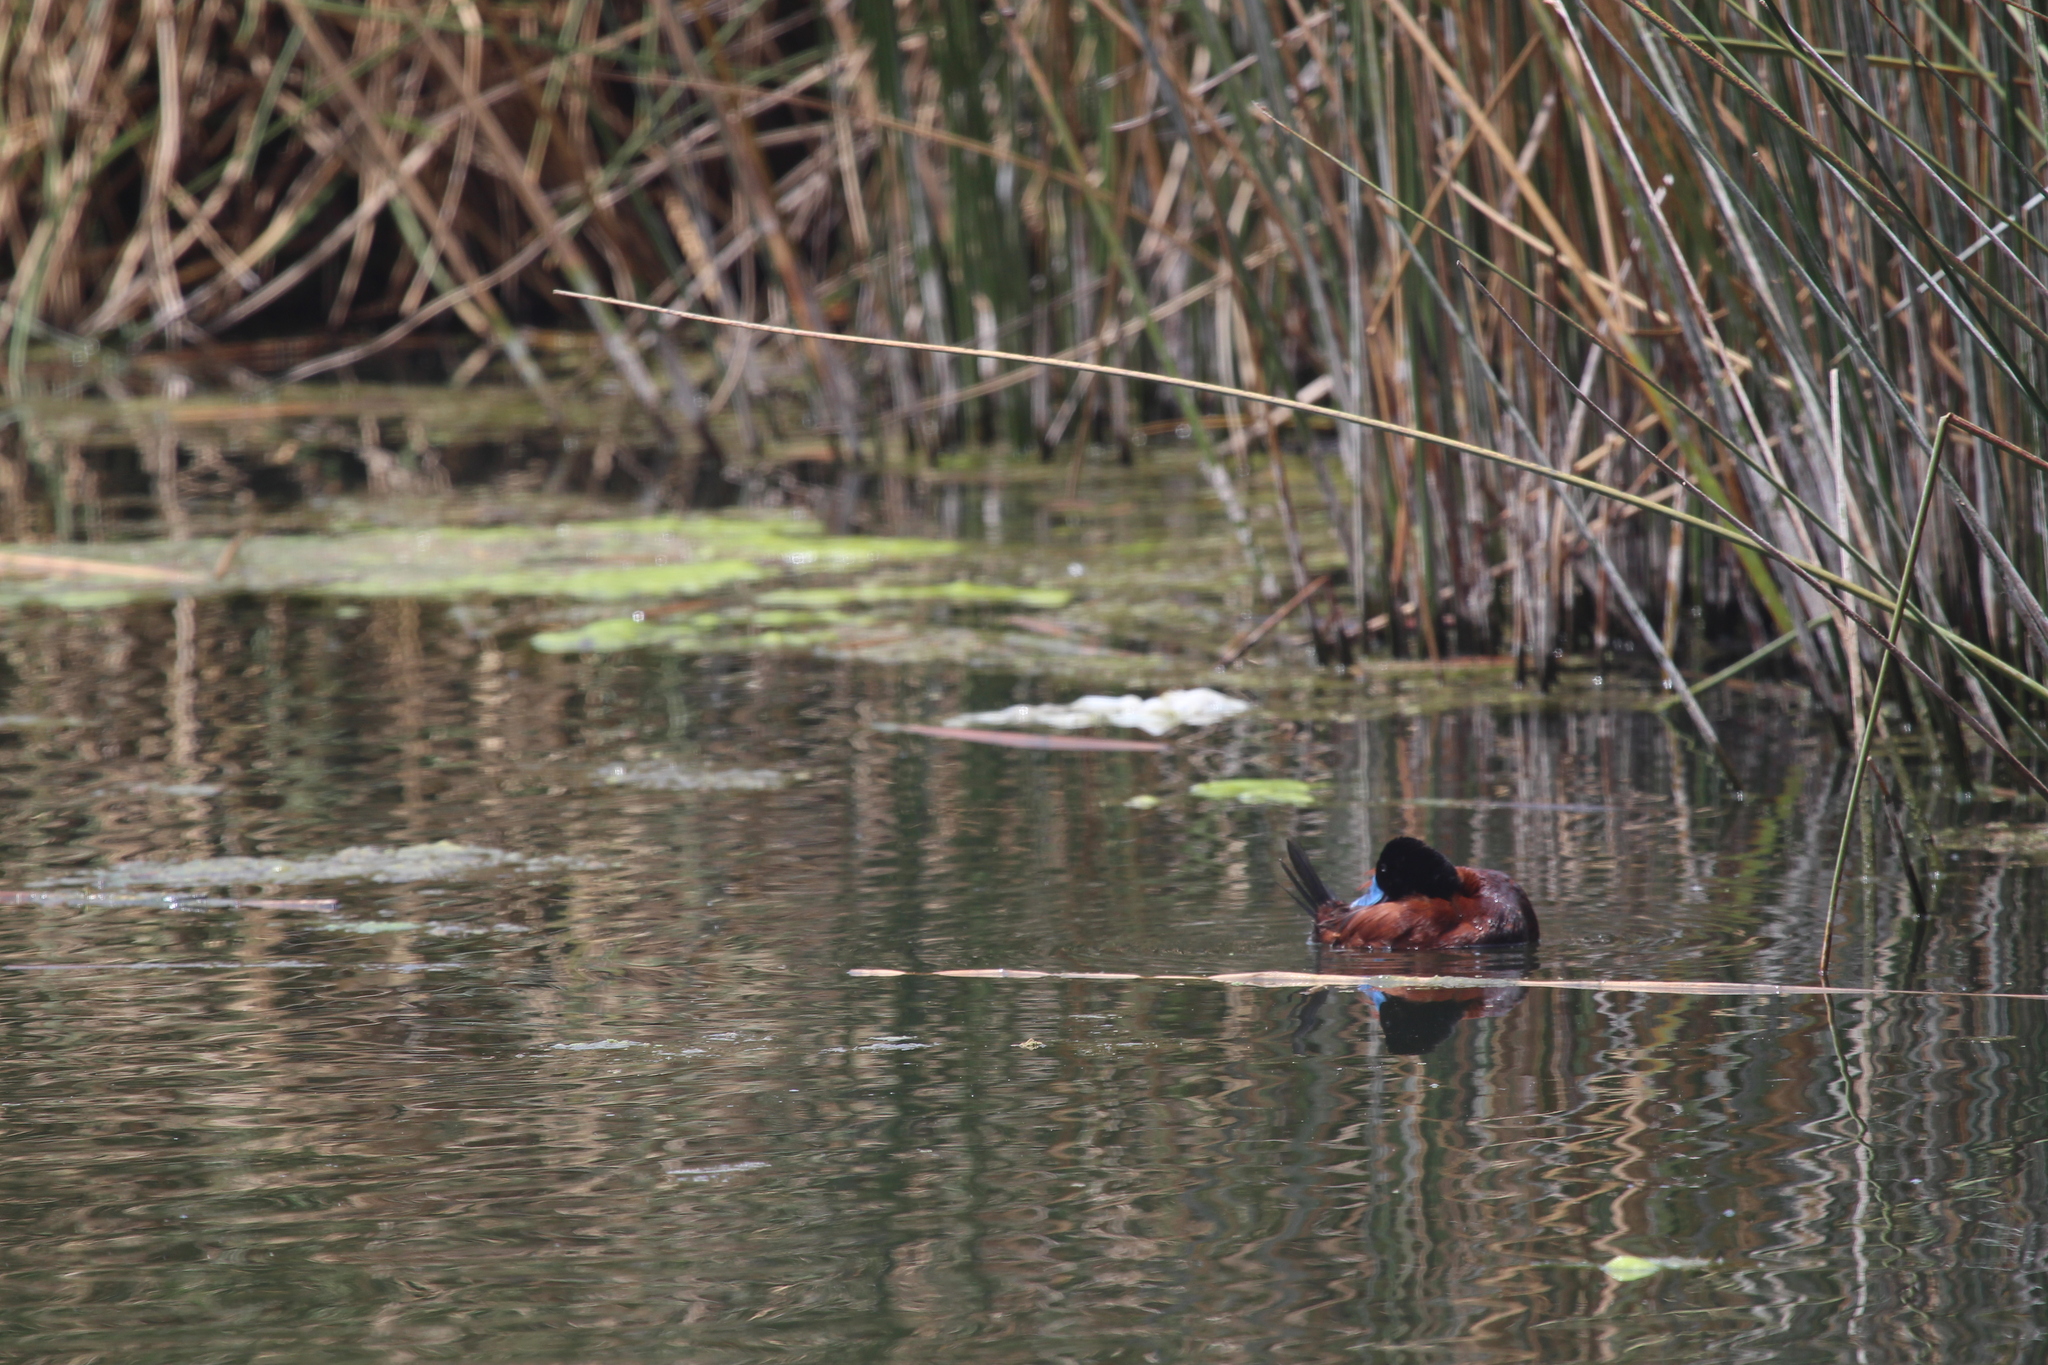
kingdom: Animalia
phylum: Chordata
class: Aves
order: Anseriformes
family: Anatidae
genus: Oxyura
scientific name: Oxyura ferruginea
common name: Andean duck
